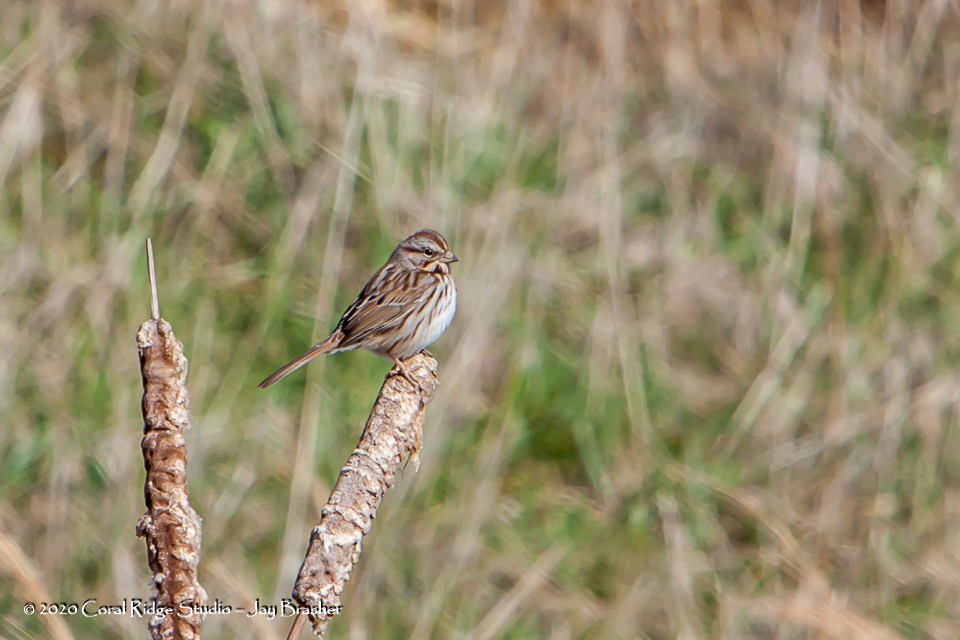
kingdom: Animalia
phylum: Chordata
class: Aves
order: Passeriformes
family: Passerellidae
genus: Melospiza
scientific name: Melospiza melodia
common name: Song sparrow
